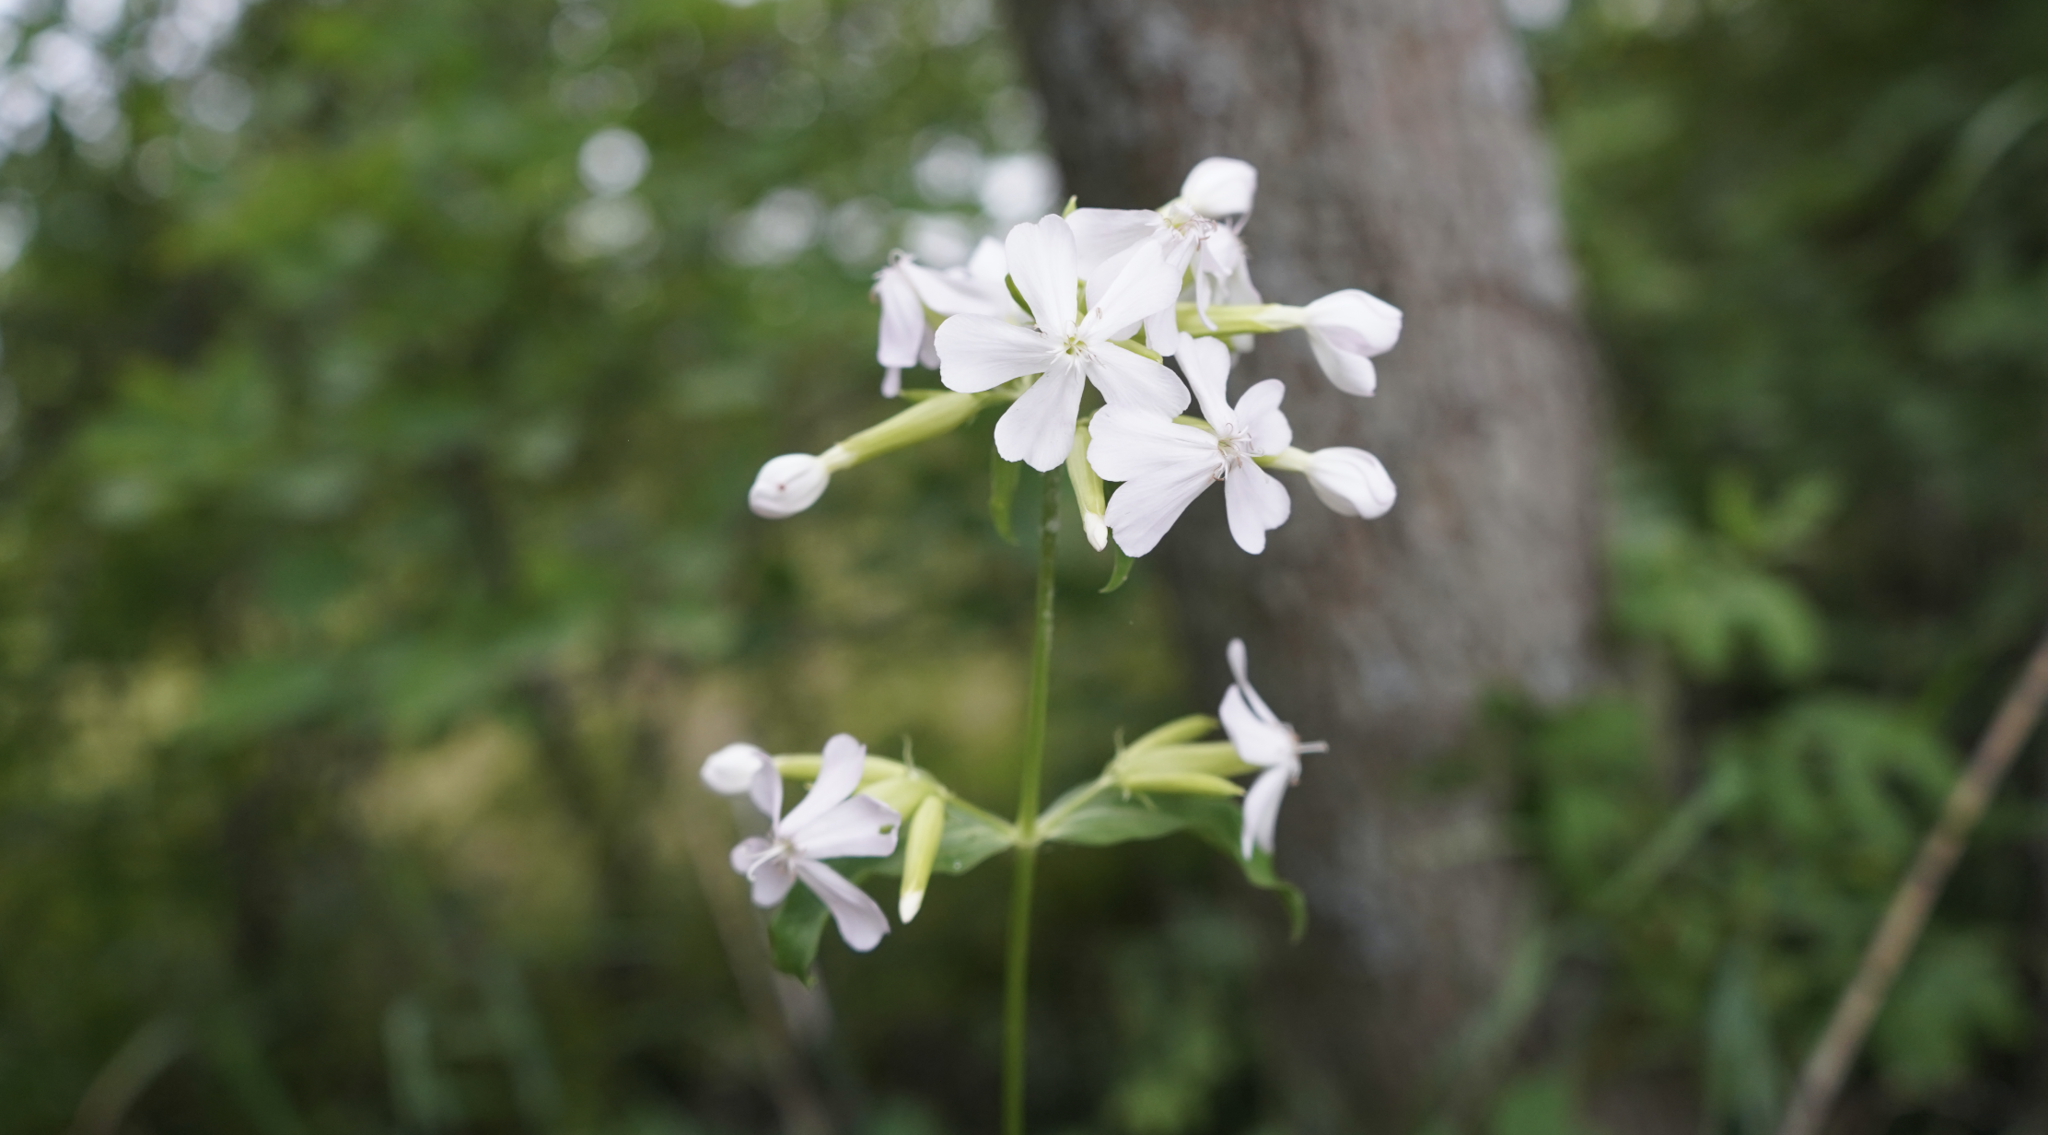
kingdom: Plantae
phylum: Tracheophyta
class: Magnoliopsida
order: Caryophyllales
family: Caryophyllaceae
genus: Saponaria
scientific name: Saponaria officinalis
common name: Soapwort
